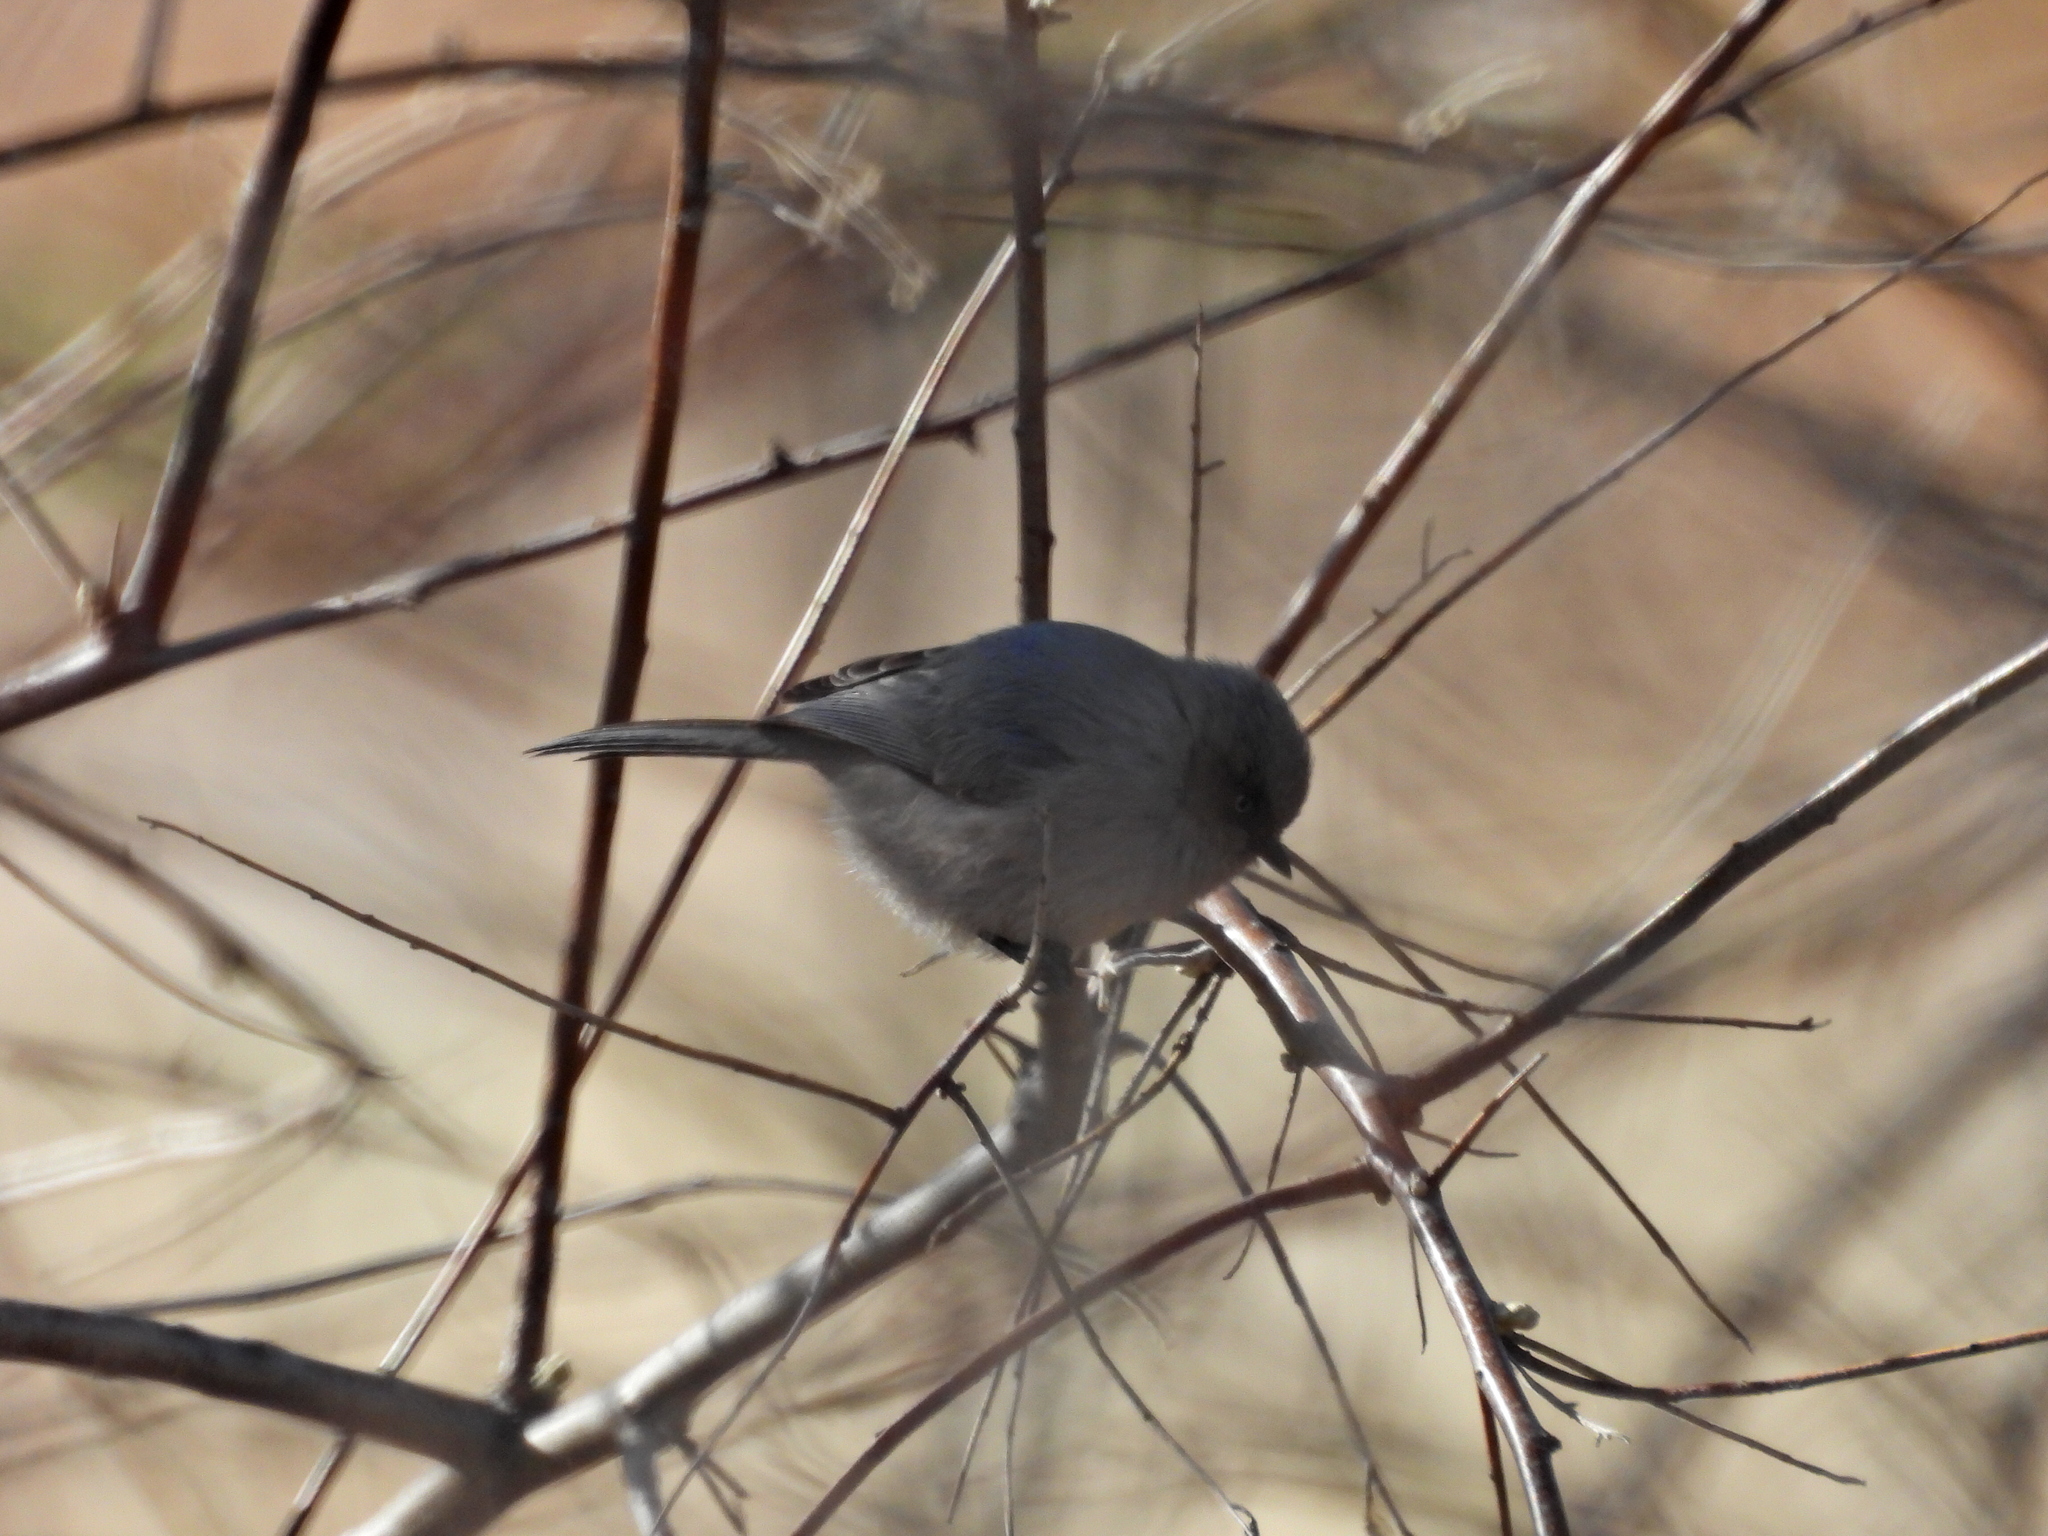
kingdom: Animalia
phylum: Chordata
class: Aves
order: Passeriformes
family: Aegithalidae
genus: Psaltriparus
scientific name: Psaltriparus minimus
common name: American bushtit
